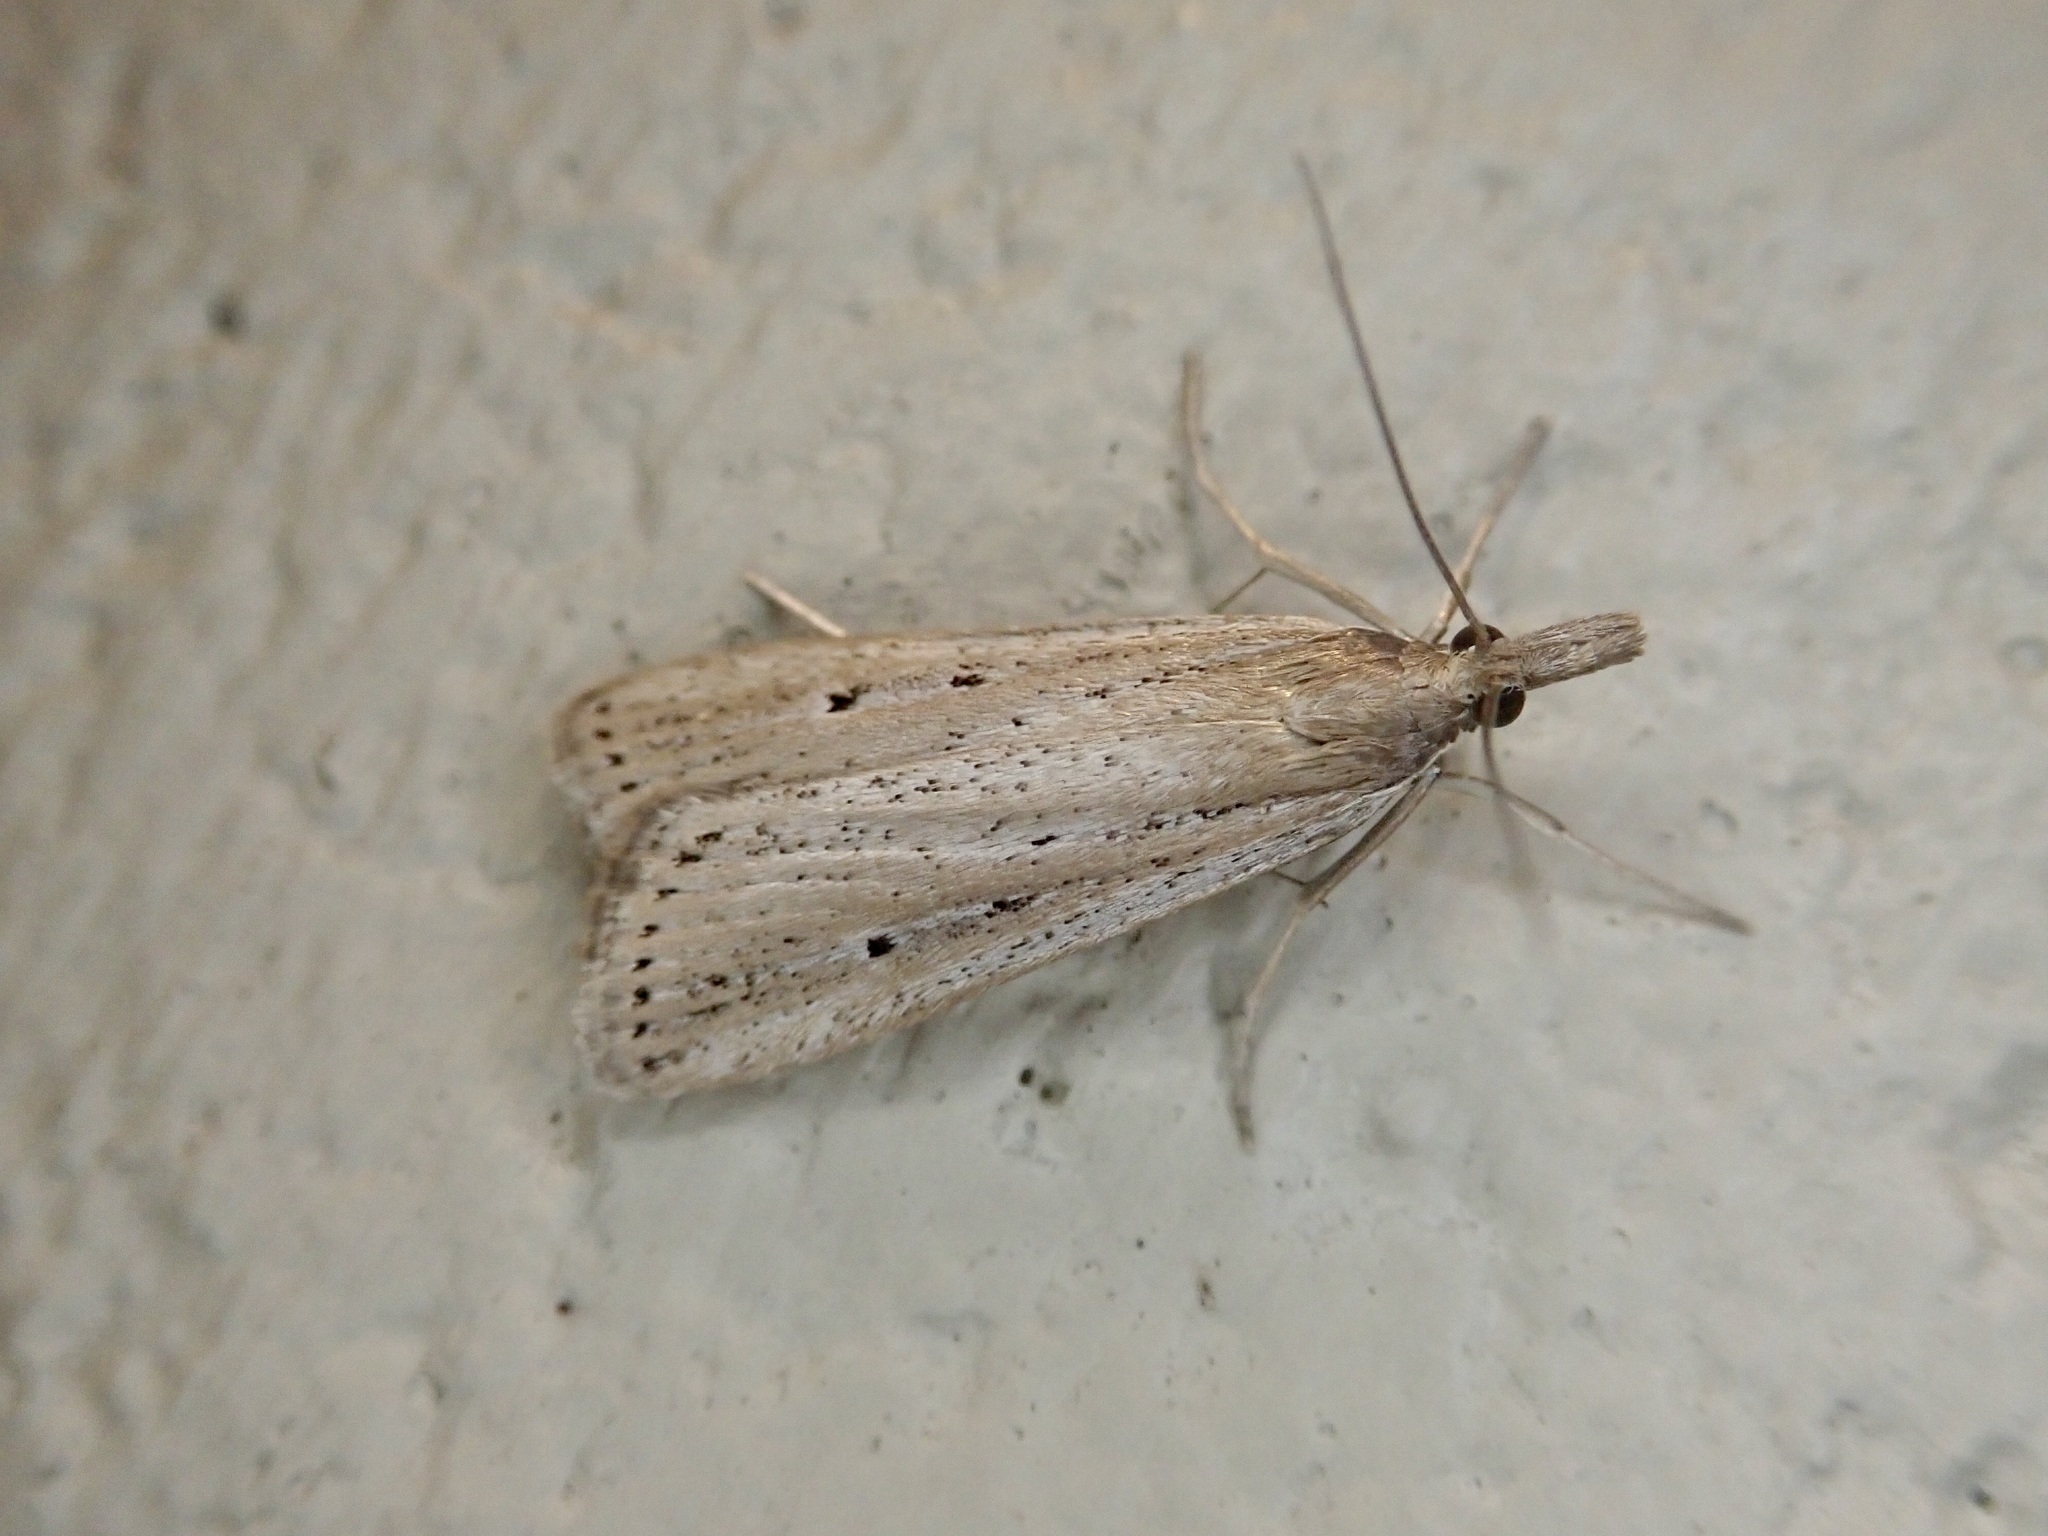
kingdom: Animalia
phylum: Arthropoda
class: Insecta
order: Lepidoptera
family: Crambidae
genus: Eudonia
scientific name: Eudonia sabulosella
